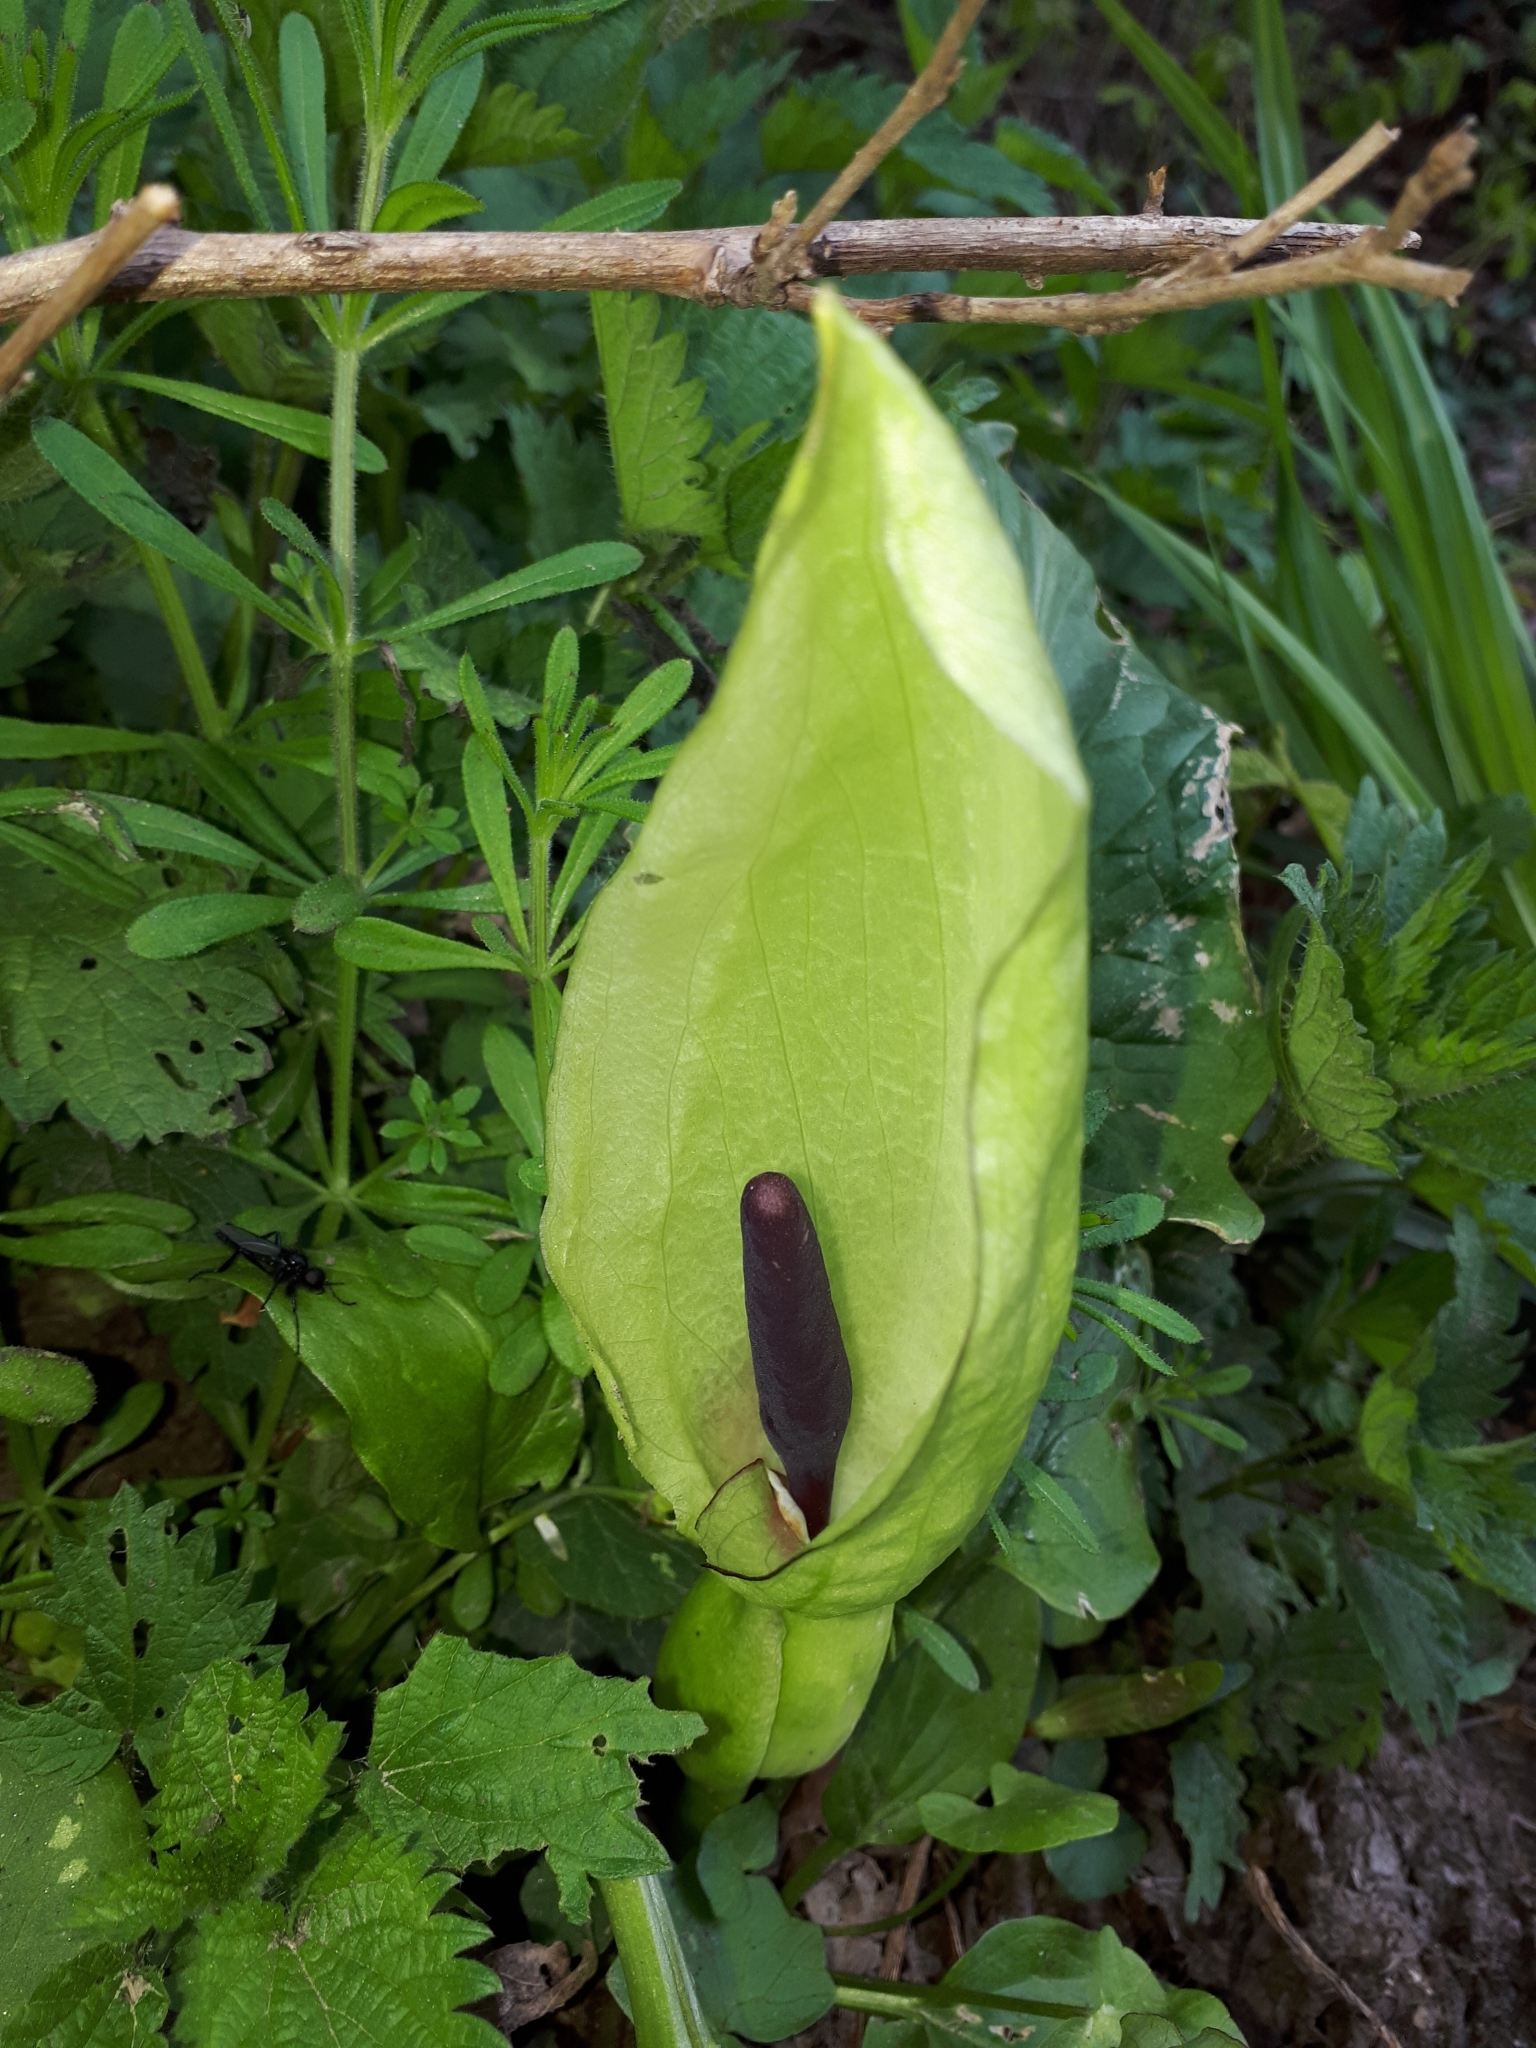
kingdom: Plantae
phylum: Tracheophyta
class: Liliopsida
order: Alismatales
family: Araceae
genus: Arum
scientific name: Arum maculatum
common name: Lords-and-ladies
